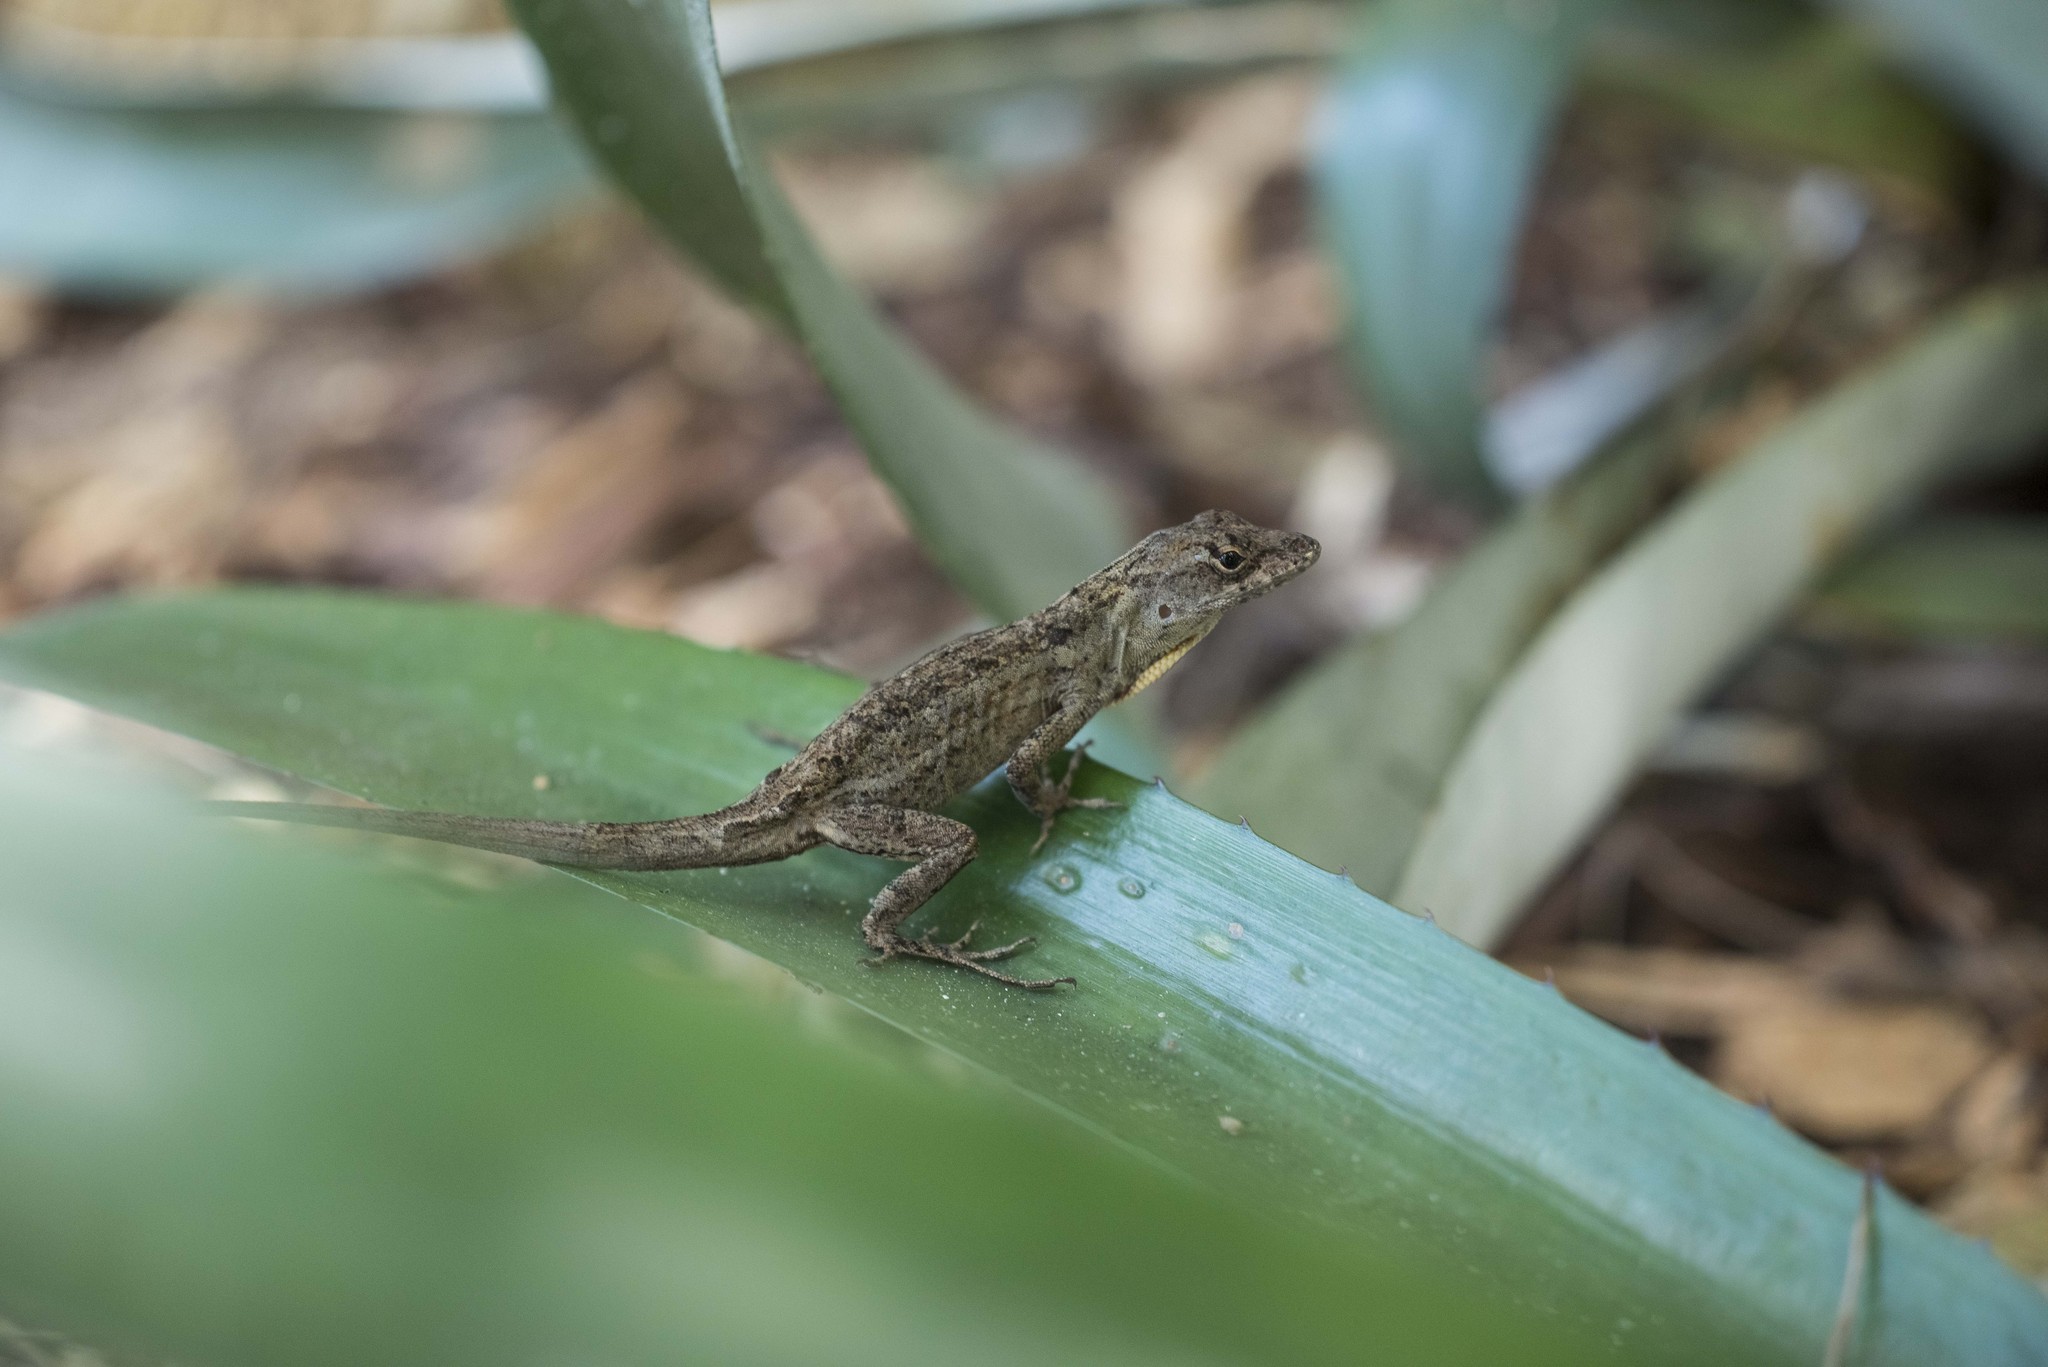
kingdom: Animalia
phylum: Chordata
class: Squamata
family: Dactyloidae
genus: Anolis
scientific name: Anolis sagrei
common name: Brown anole
